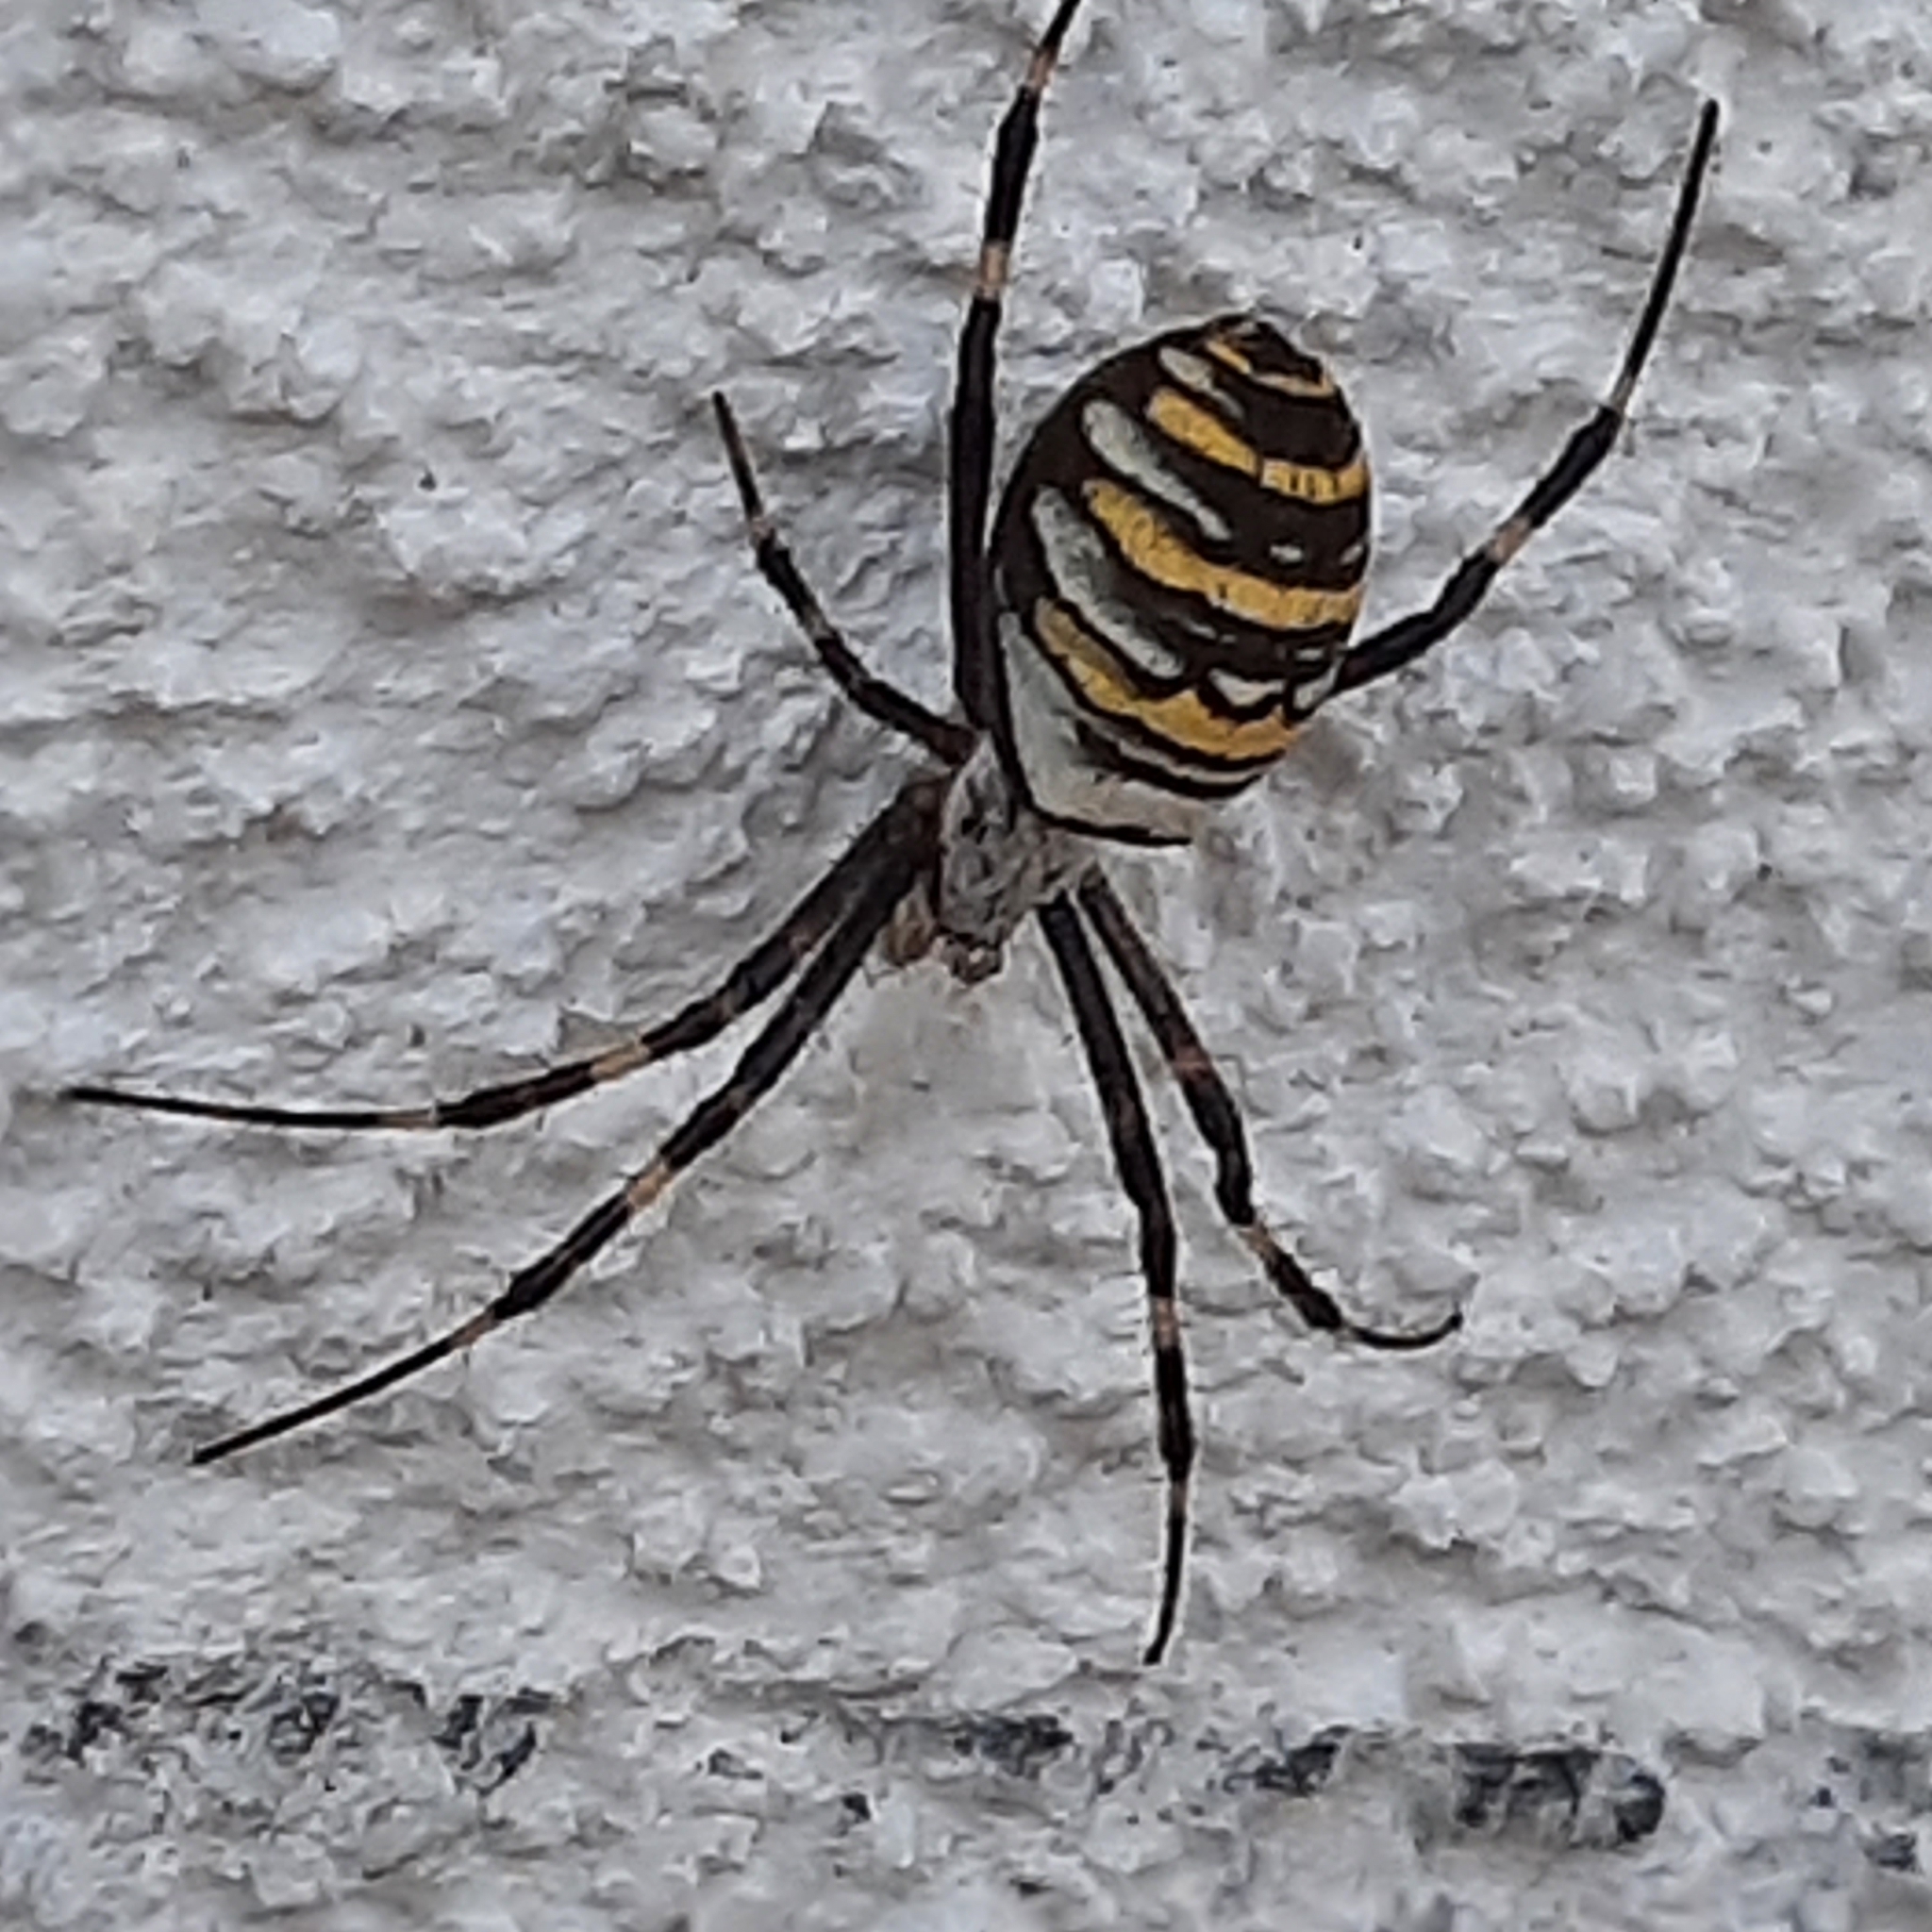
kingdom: Animalia
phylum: Arthropoda
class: Arachnida
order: Araneae
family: Araneidae
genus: Argiope
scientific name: Argiope bruennichi
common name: Wasp spider
